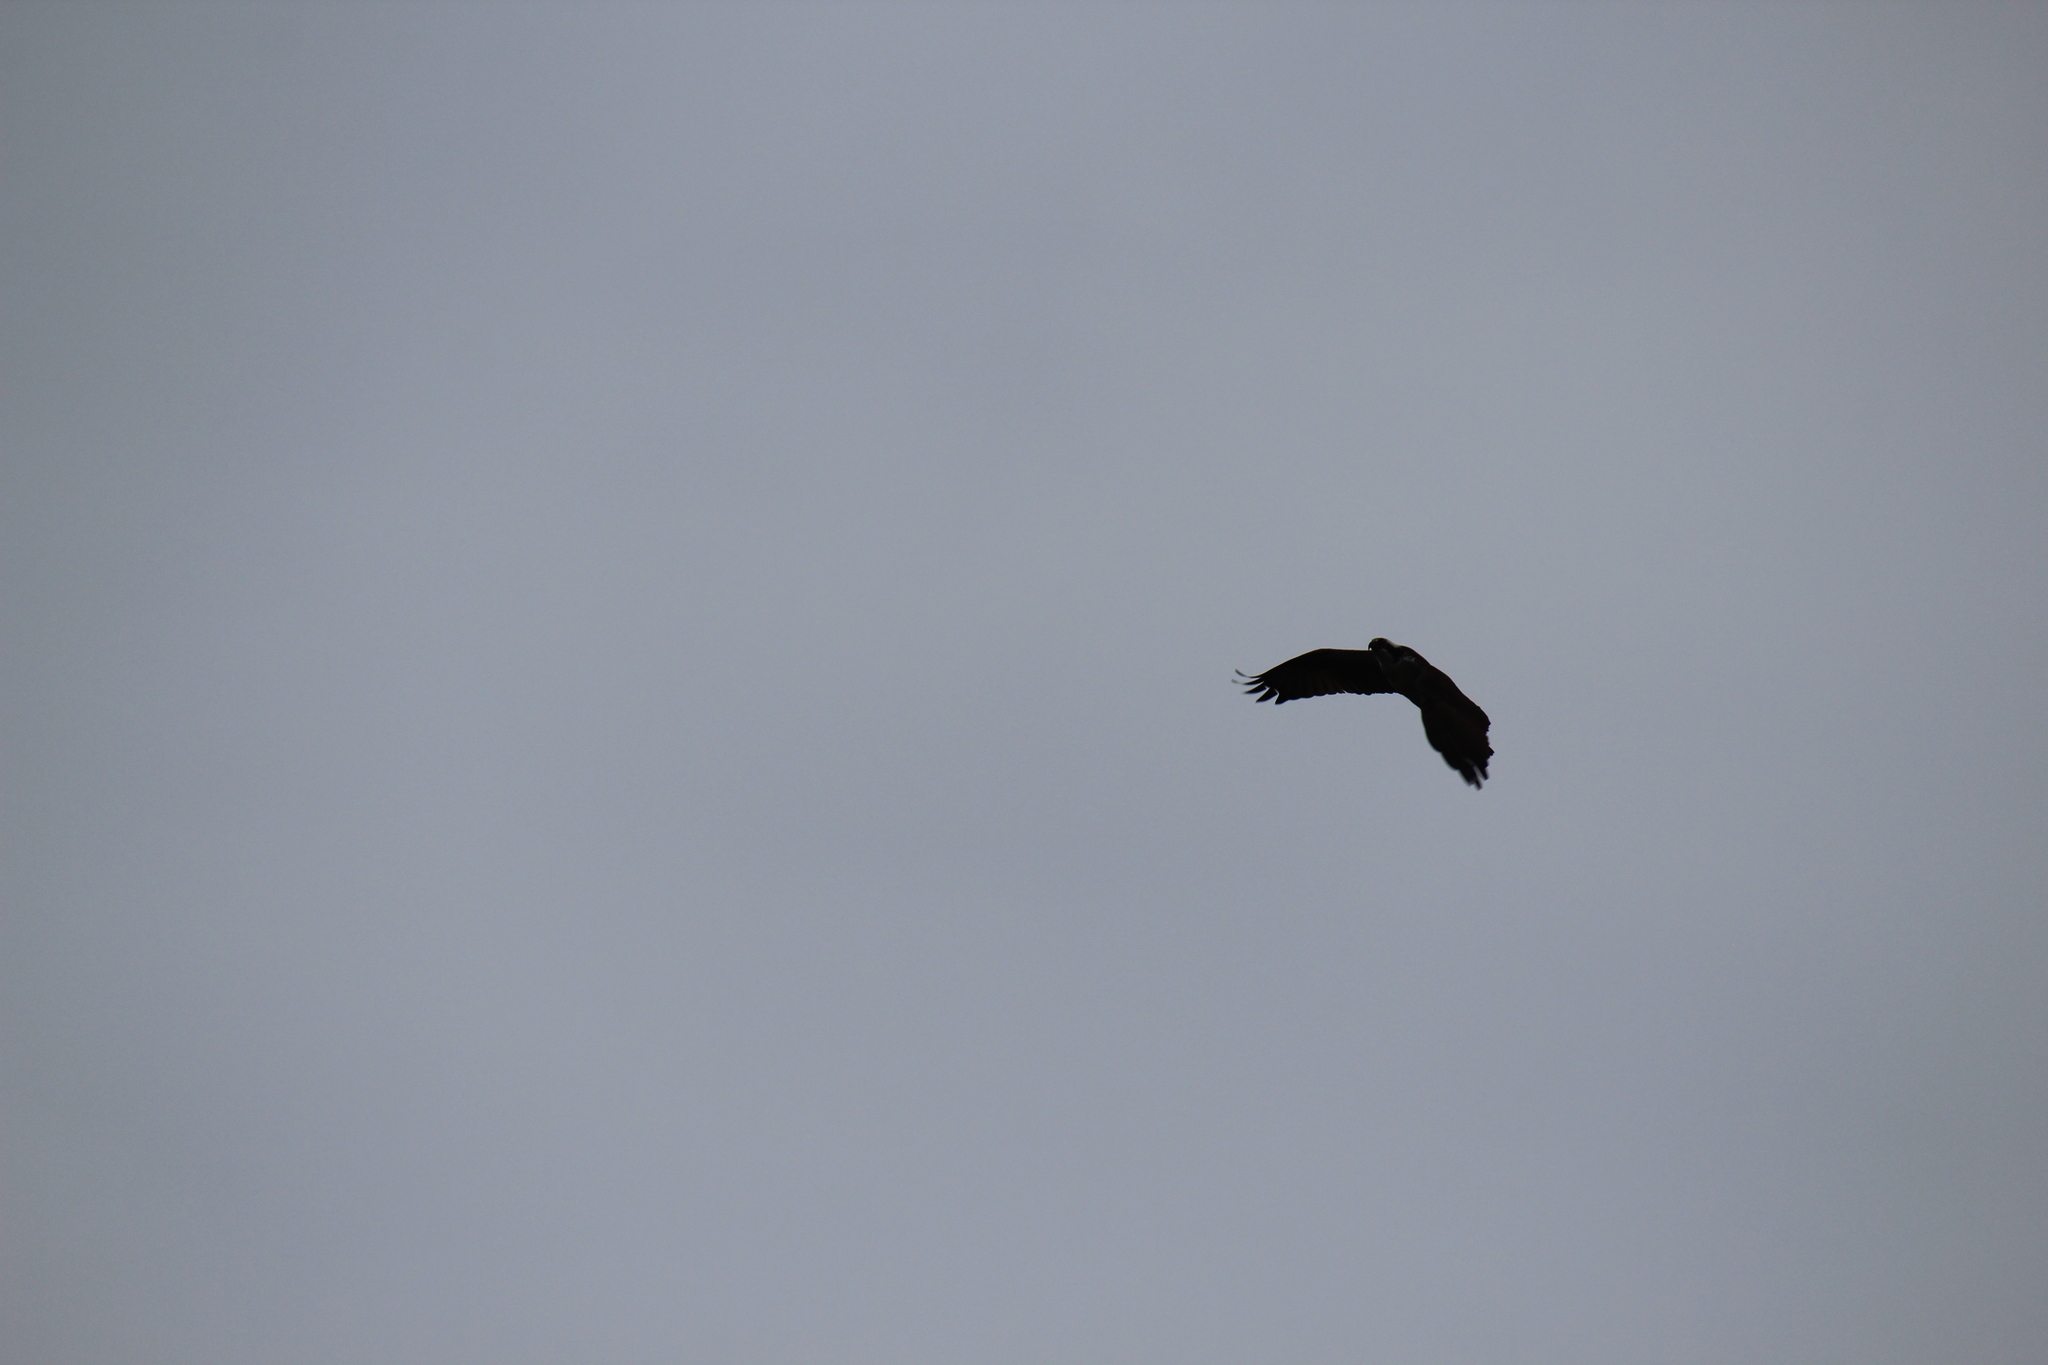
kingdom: Animalia
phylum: Chordata
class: Aves
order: Accipitriformes
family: Pandionidae
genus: Pandion
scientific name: Pandion haliaetus
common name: Osprey
